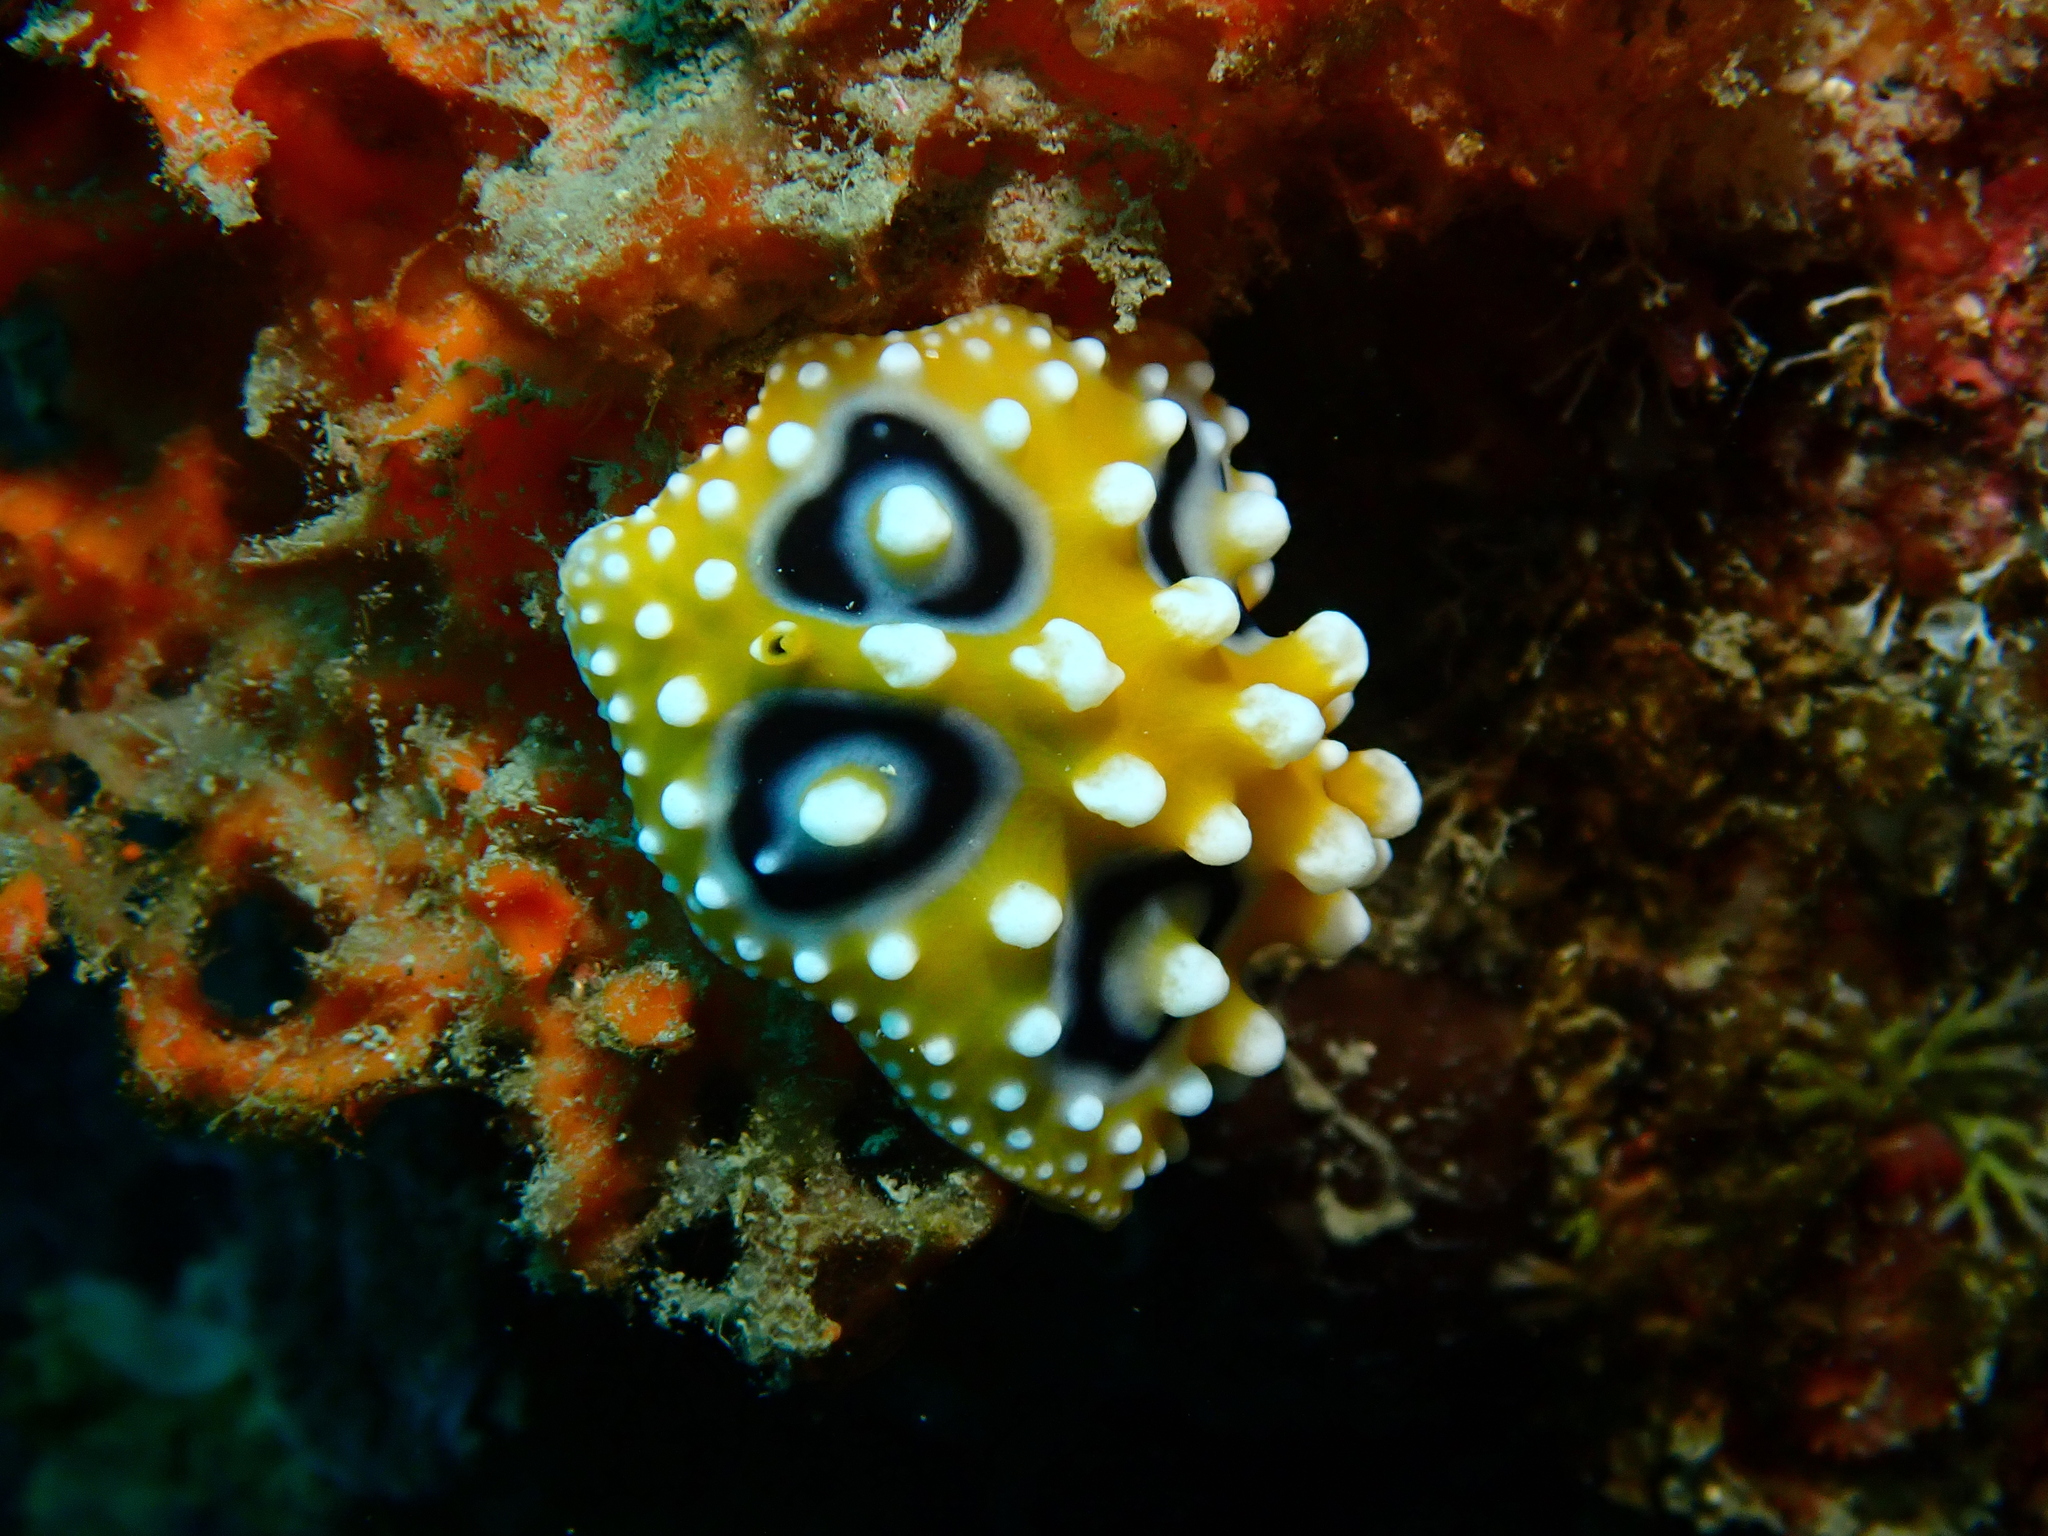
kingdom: Animalia
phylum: Mollusca
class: Gastropoda
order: Nudibranchia
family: Phyllidiidae
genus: Phyllidia
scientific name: Phyllidia ocellata
